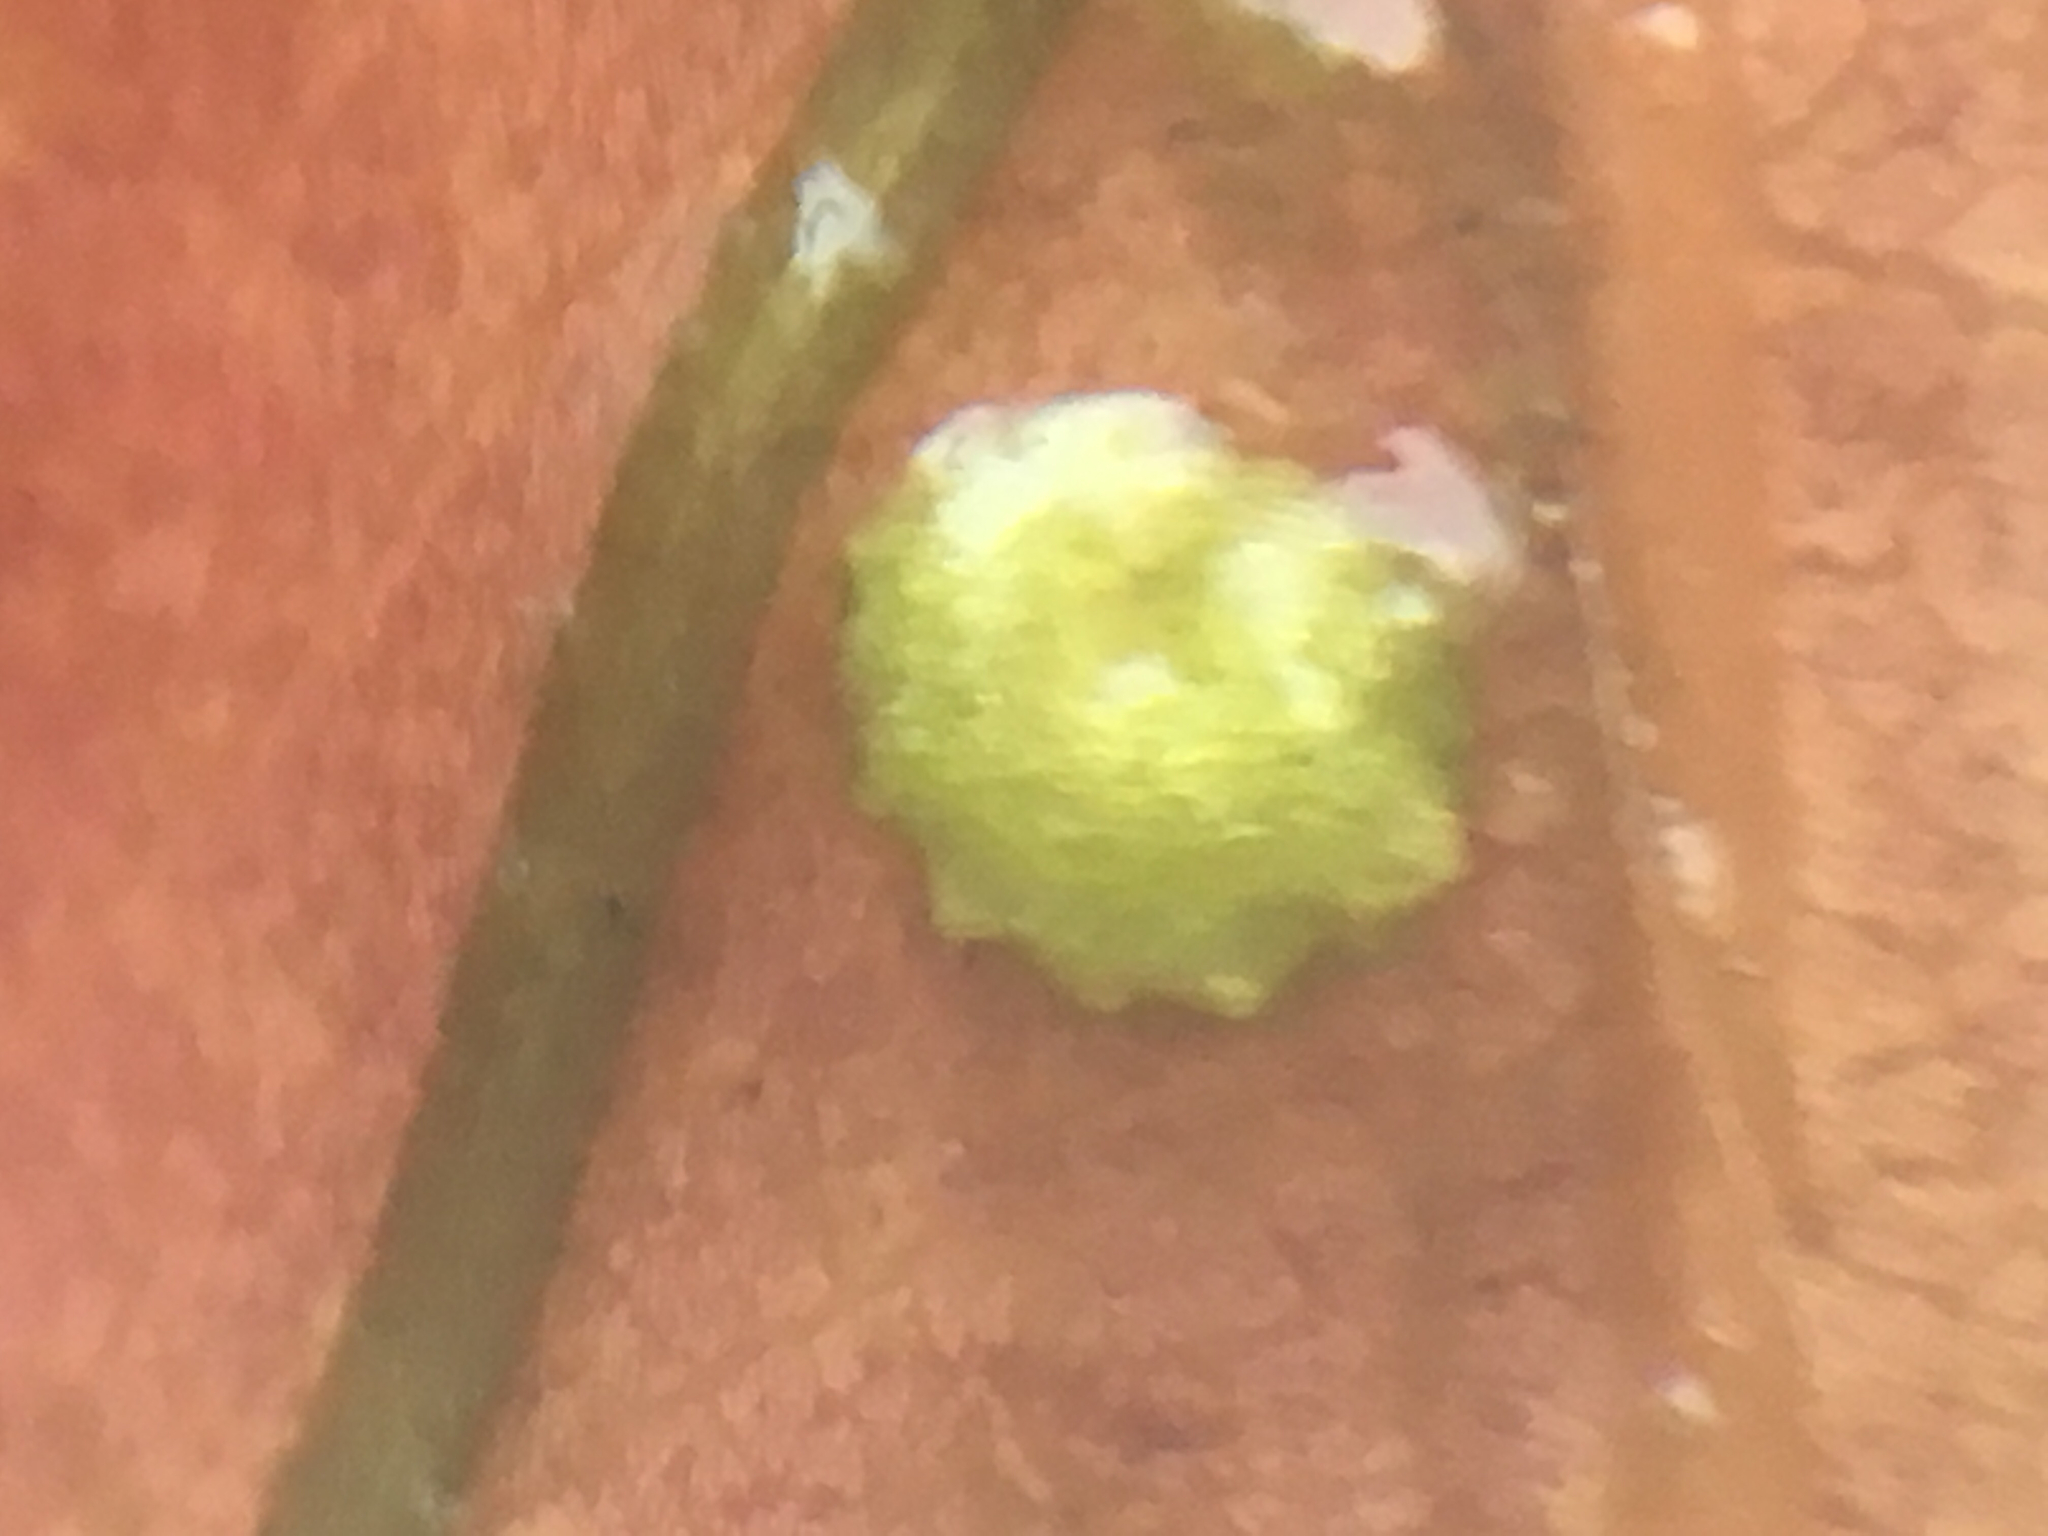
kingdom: Plantae
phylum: Tracheophyta
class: Liliopsida
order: Alismatales
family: Potamogetonaceae
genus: Potamogeton
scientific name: Potamogeton foliosus
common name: Leafy pondweed
